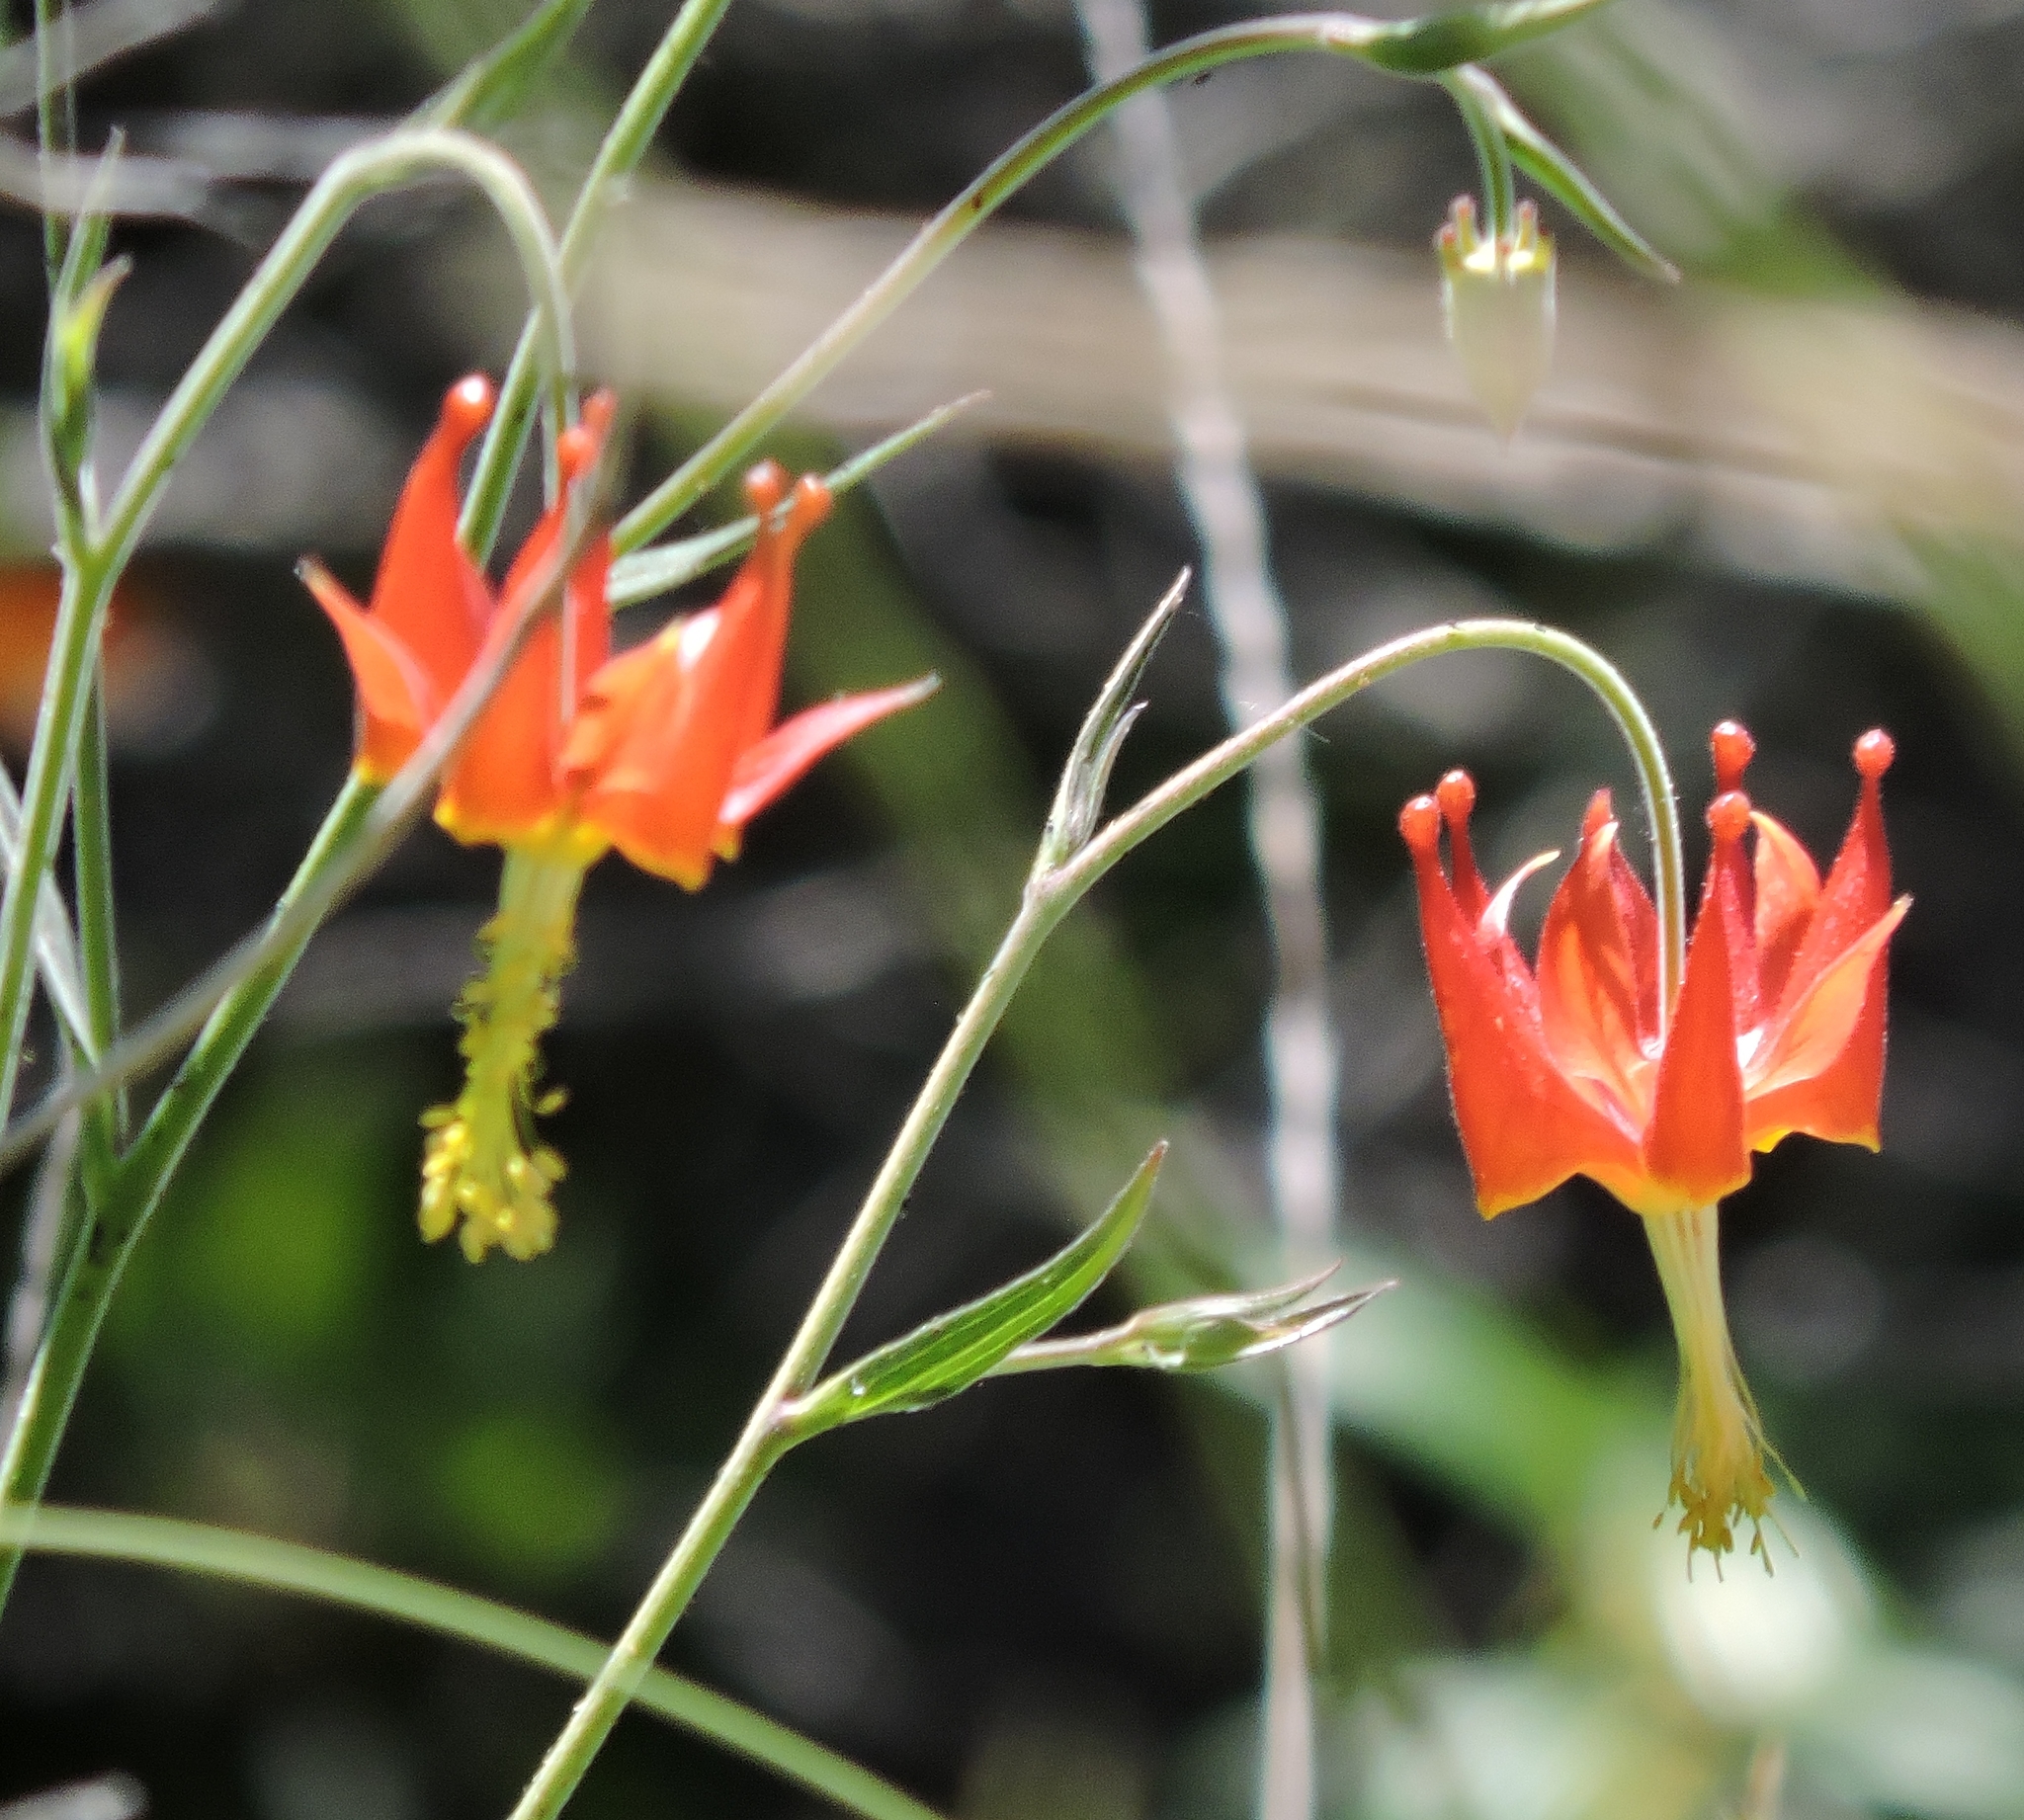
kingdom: Plantae
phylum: Tracheophyta
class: Magnoliopsida
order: Ranunculales
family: Ranunculaceae
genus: Aquilegia
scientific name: Aquilegia eximia
